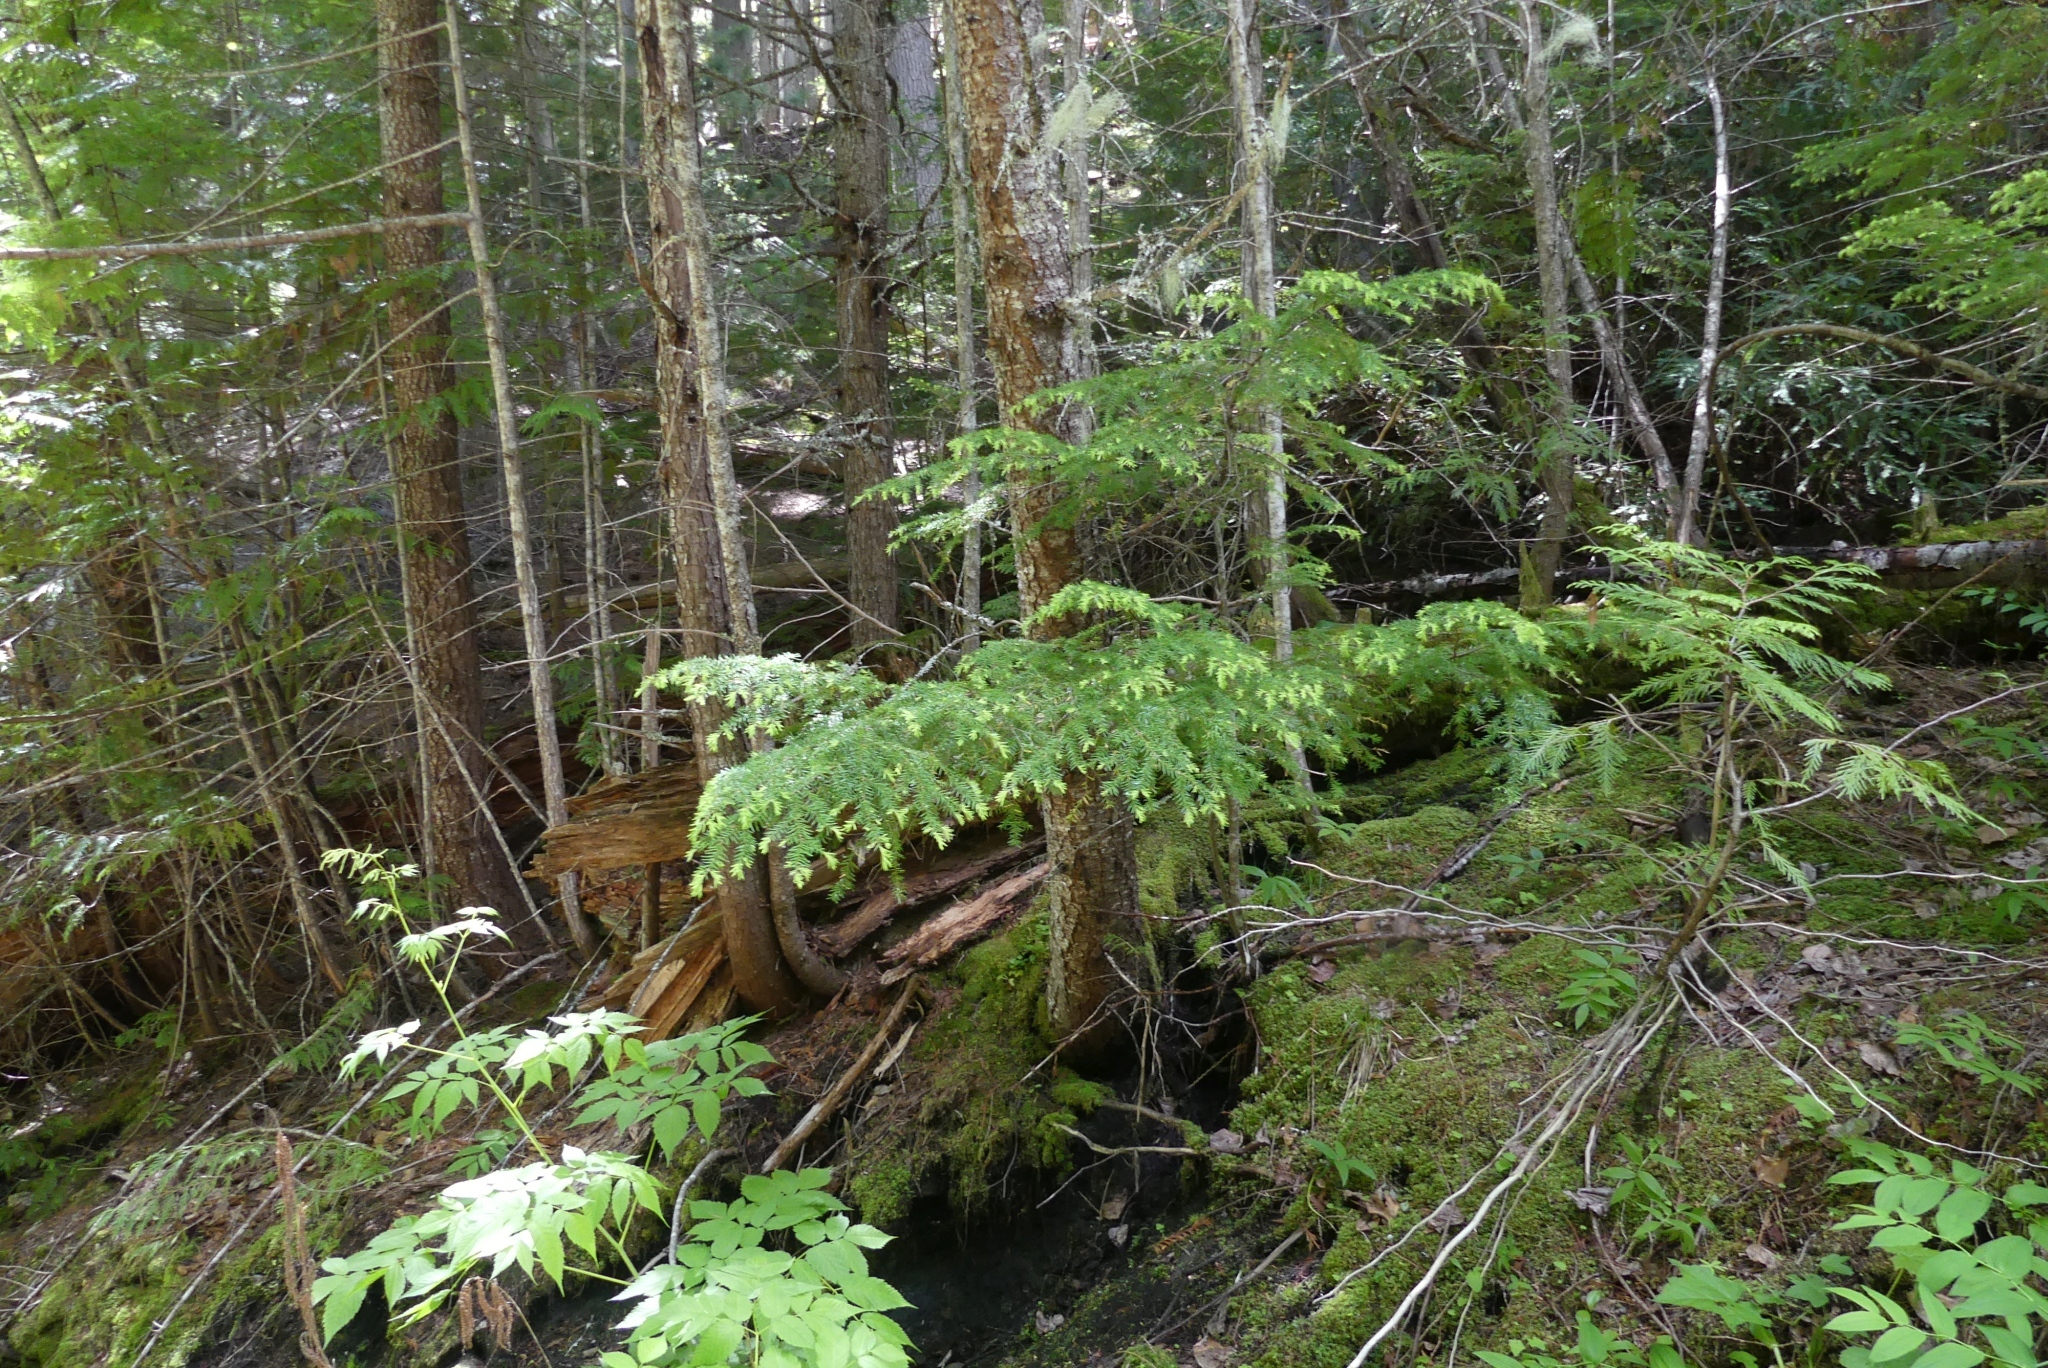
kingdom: Plantae
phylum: Tracheophyta
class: Pinopsida
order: Pinales
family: Pinaceae
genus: Tsuga
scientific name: Tsuga heterophylla
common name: Western hemlock
